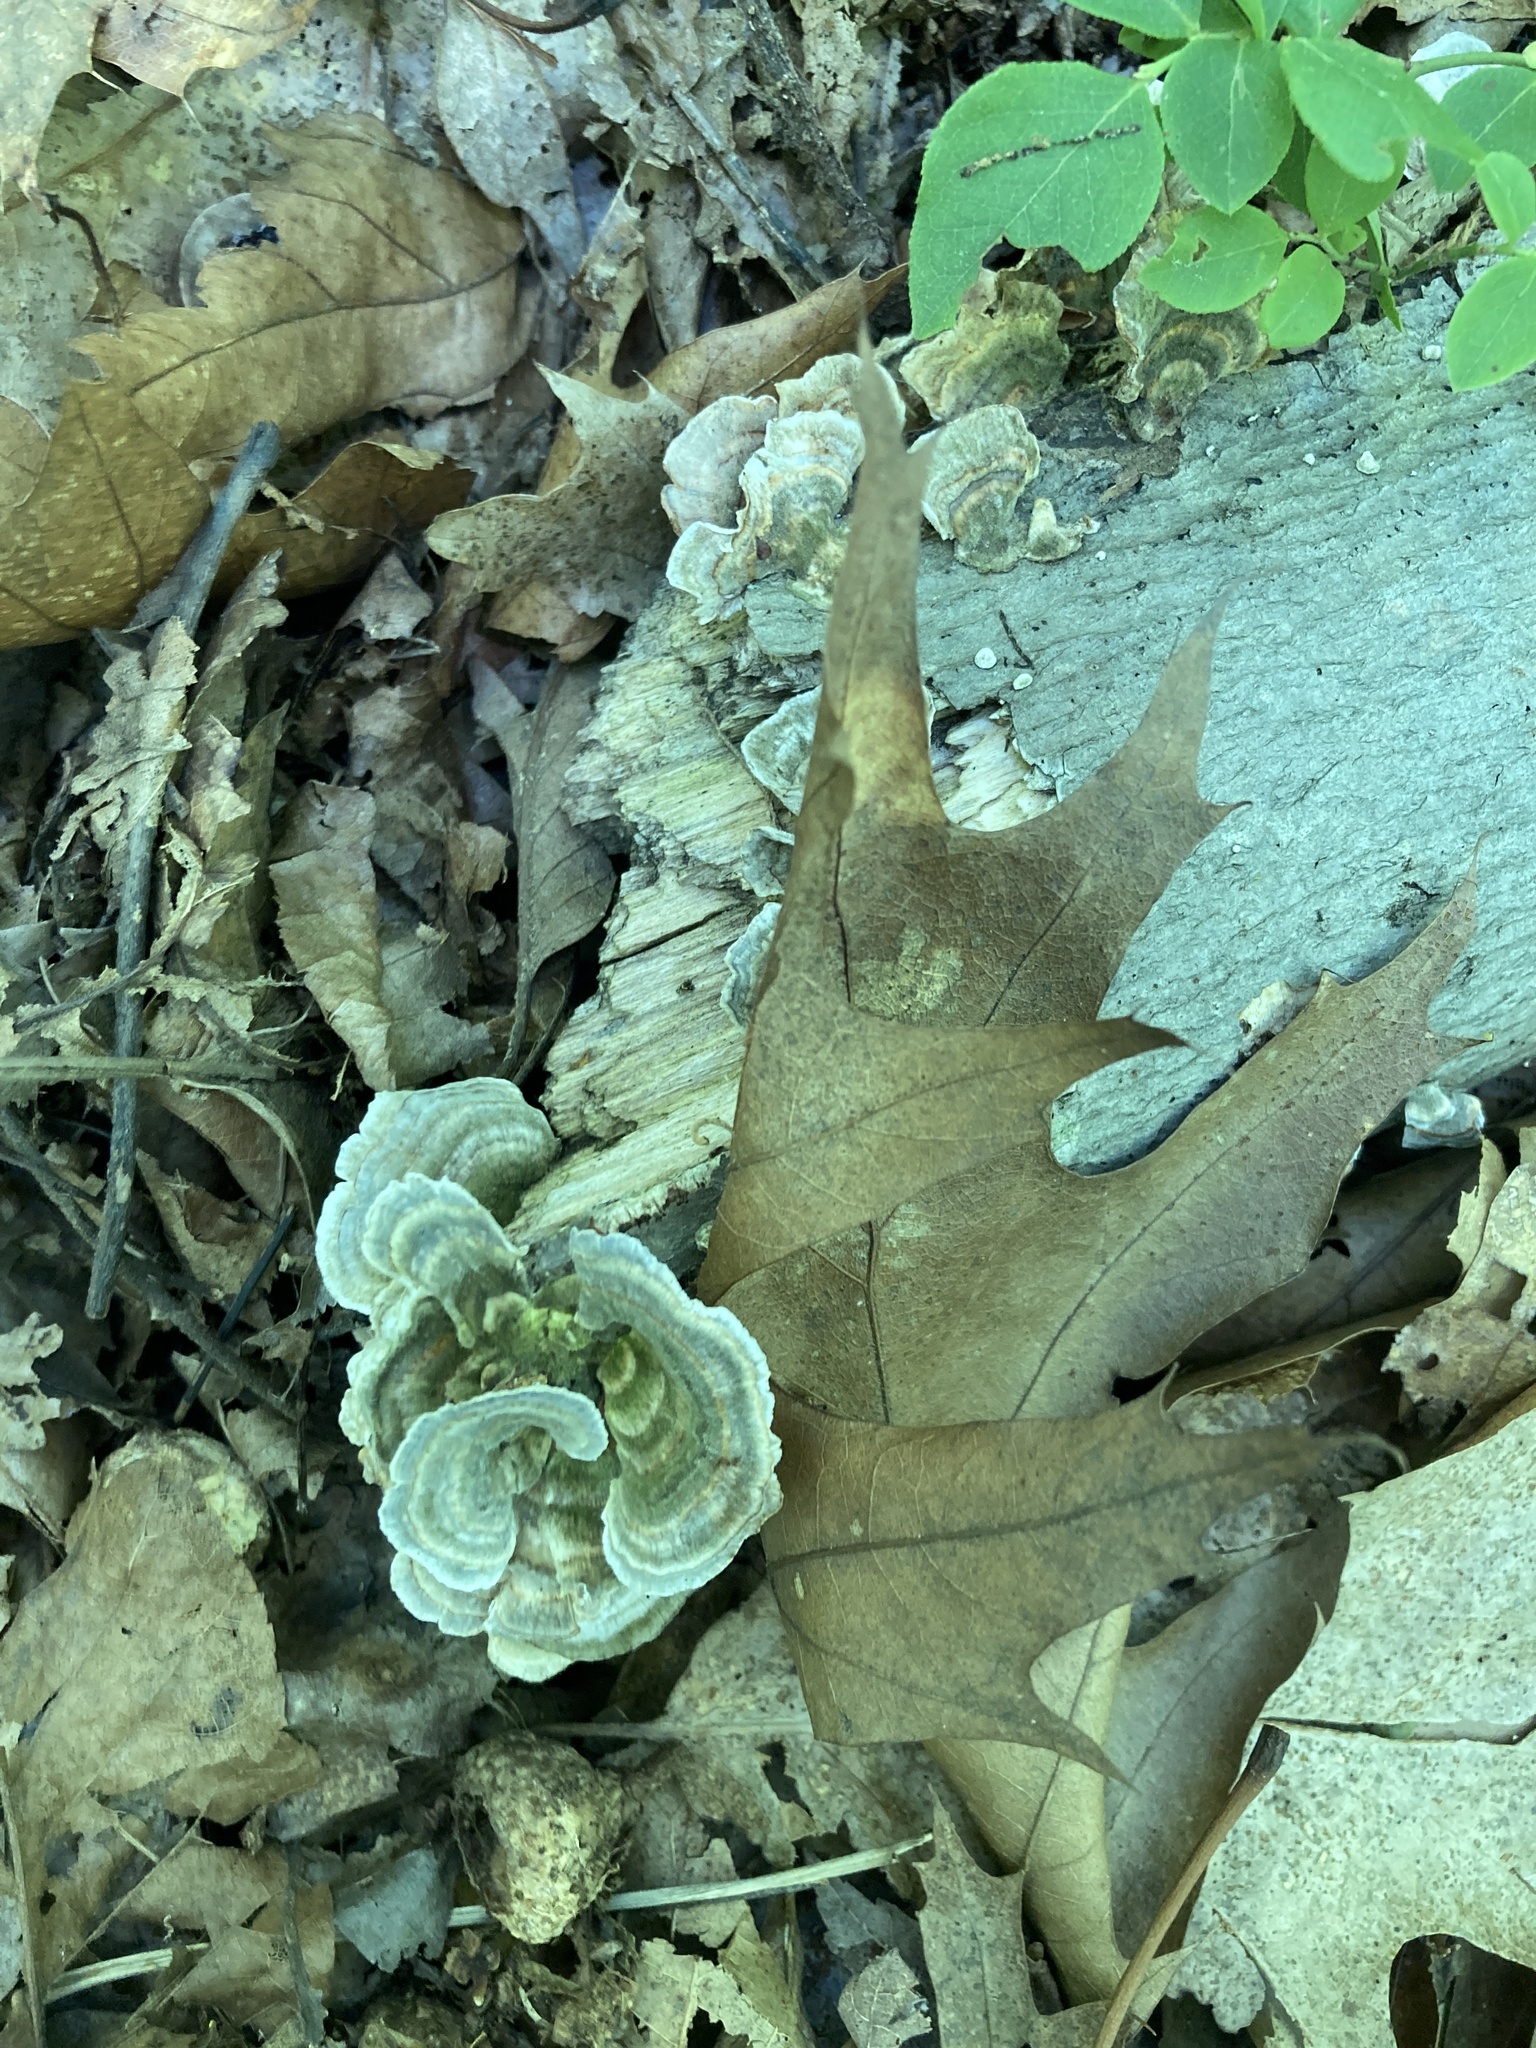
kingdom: Fungi
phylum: Basidiomycota
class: Agaricomycetes
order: Polyporales
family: Polyporaceae
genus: Trametes
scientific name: Trametes versicolor
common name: Turkeytail
